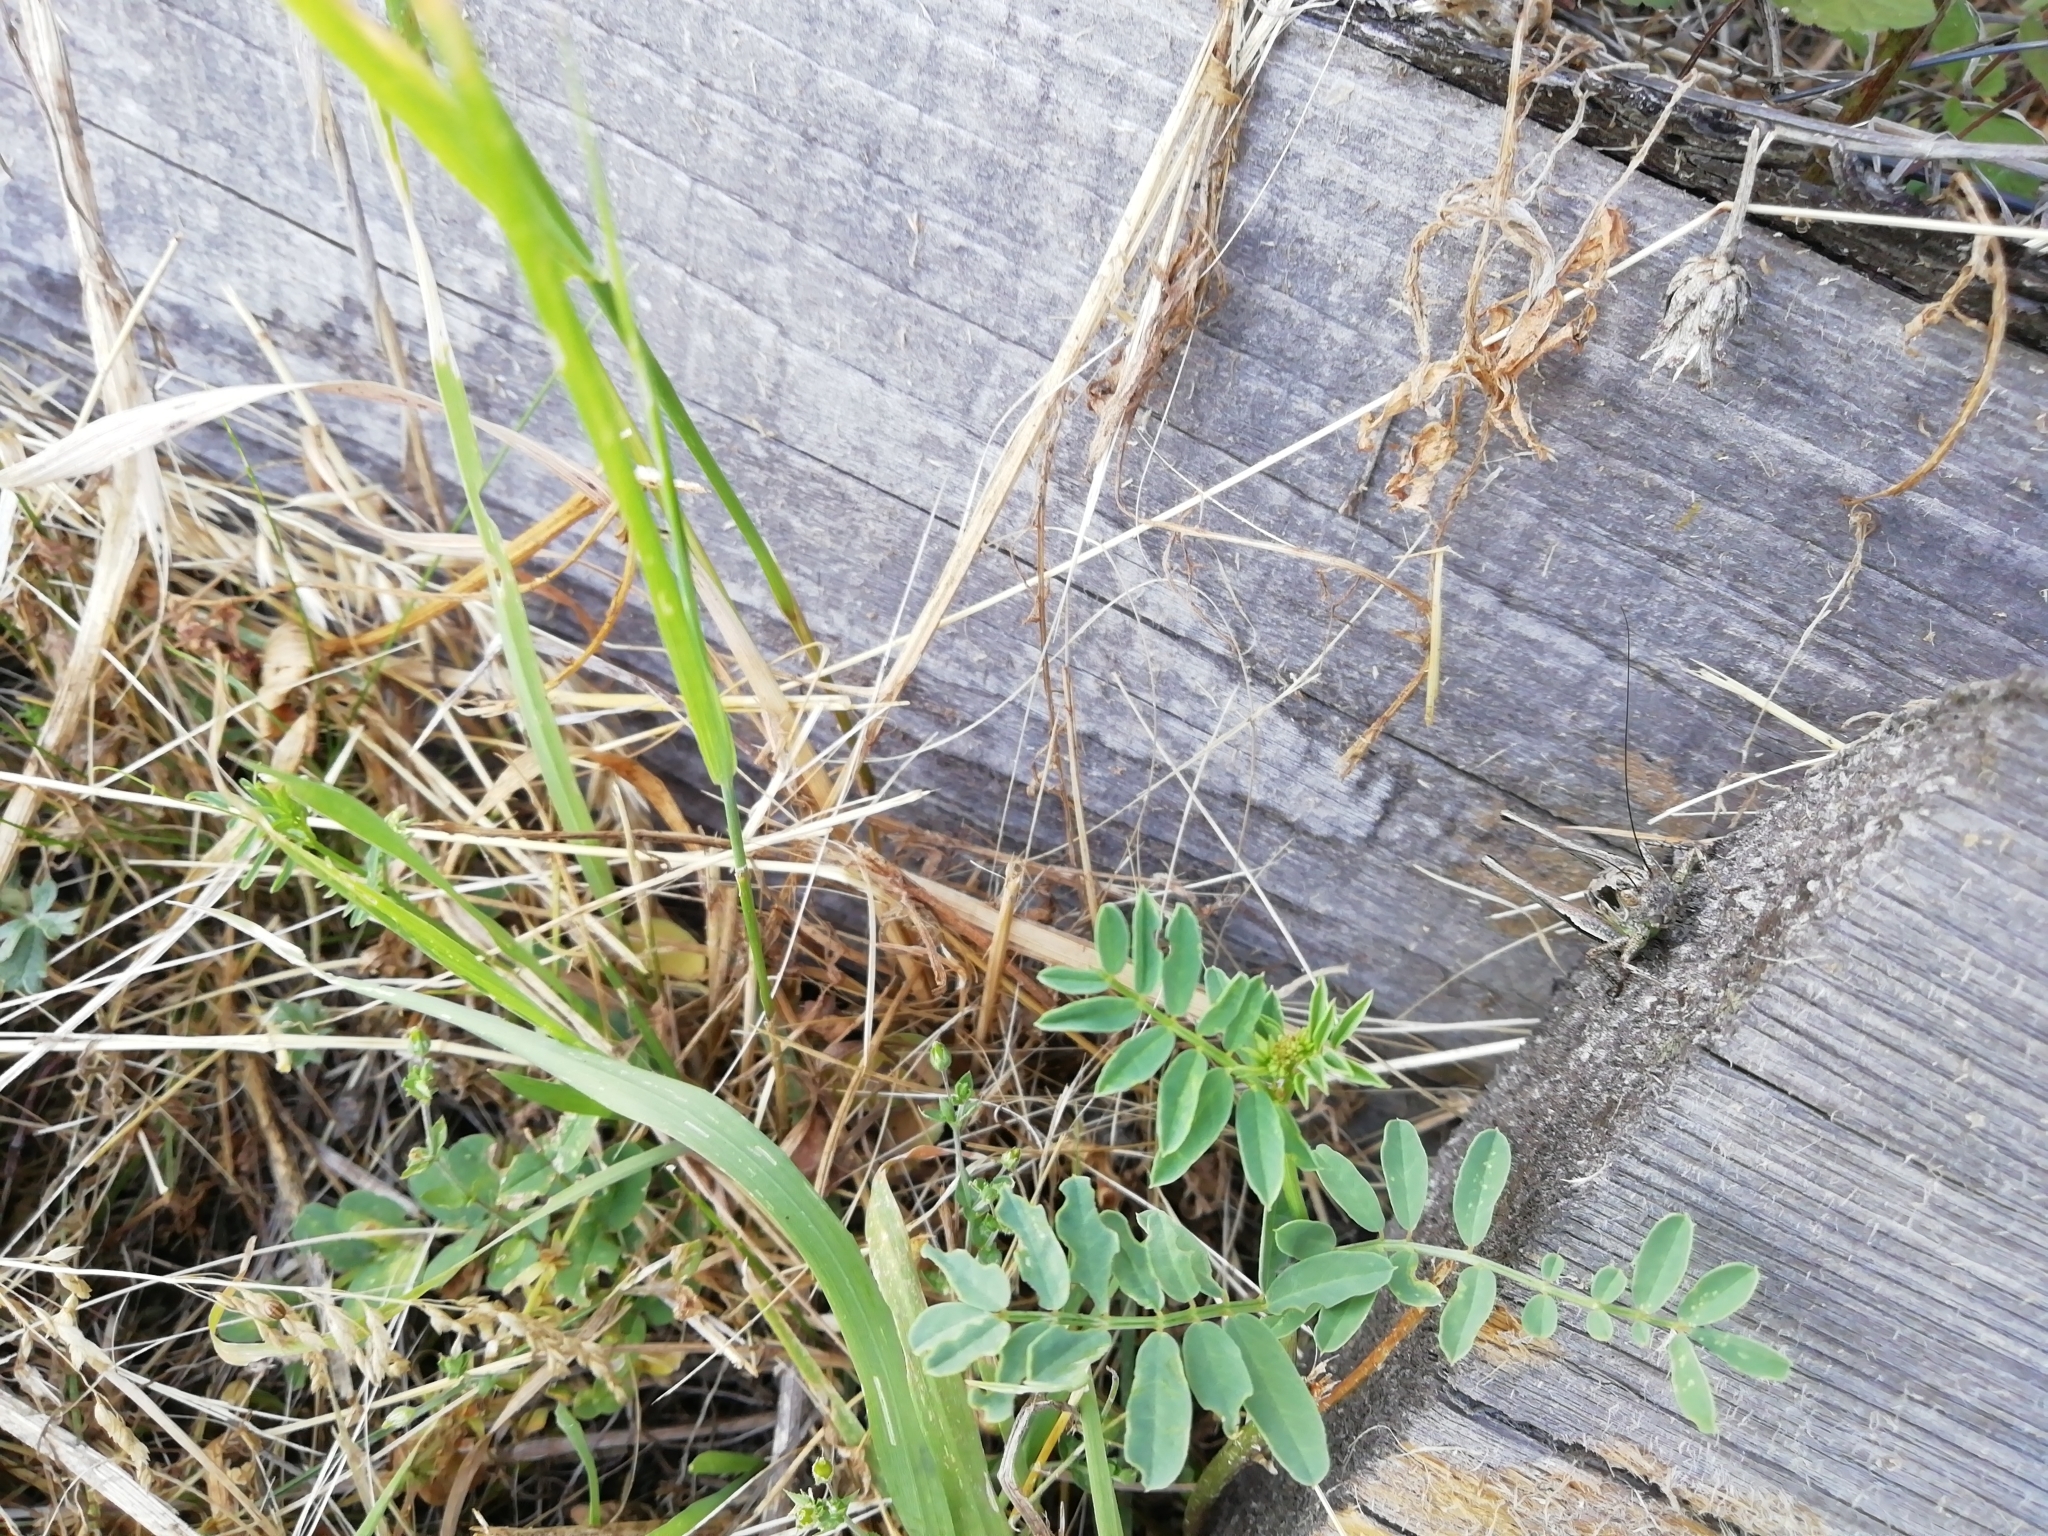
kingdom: Animalia
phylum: Arthropoda
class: Insecta
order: Orthoptera
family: Tettigoniidae
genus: Platycleis
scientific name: Platycleis albopunctata
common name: Grey bush-cricket
